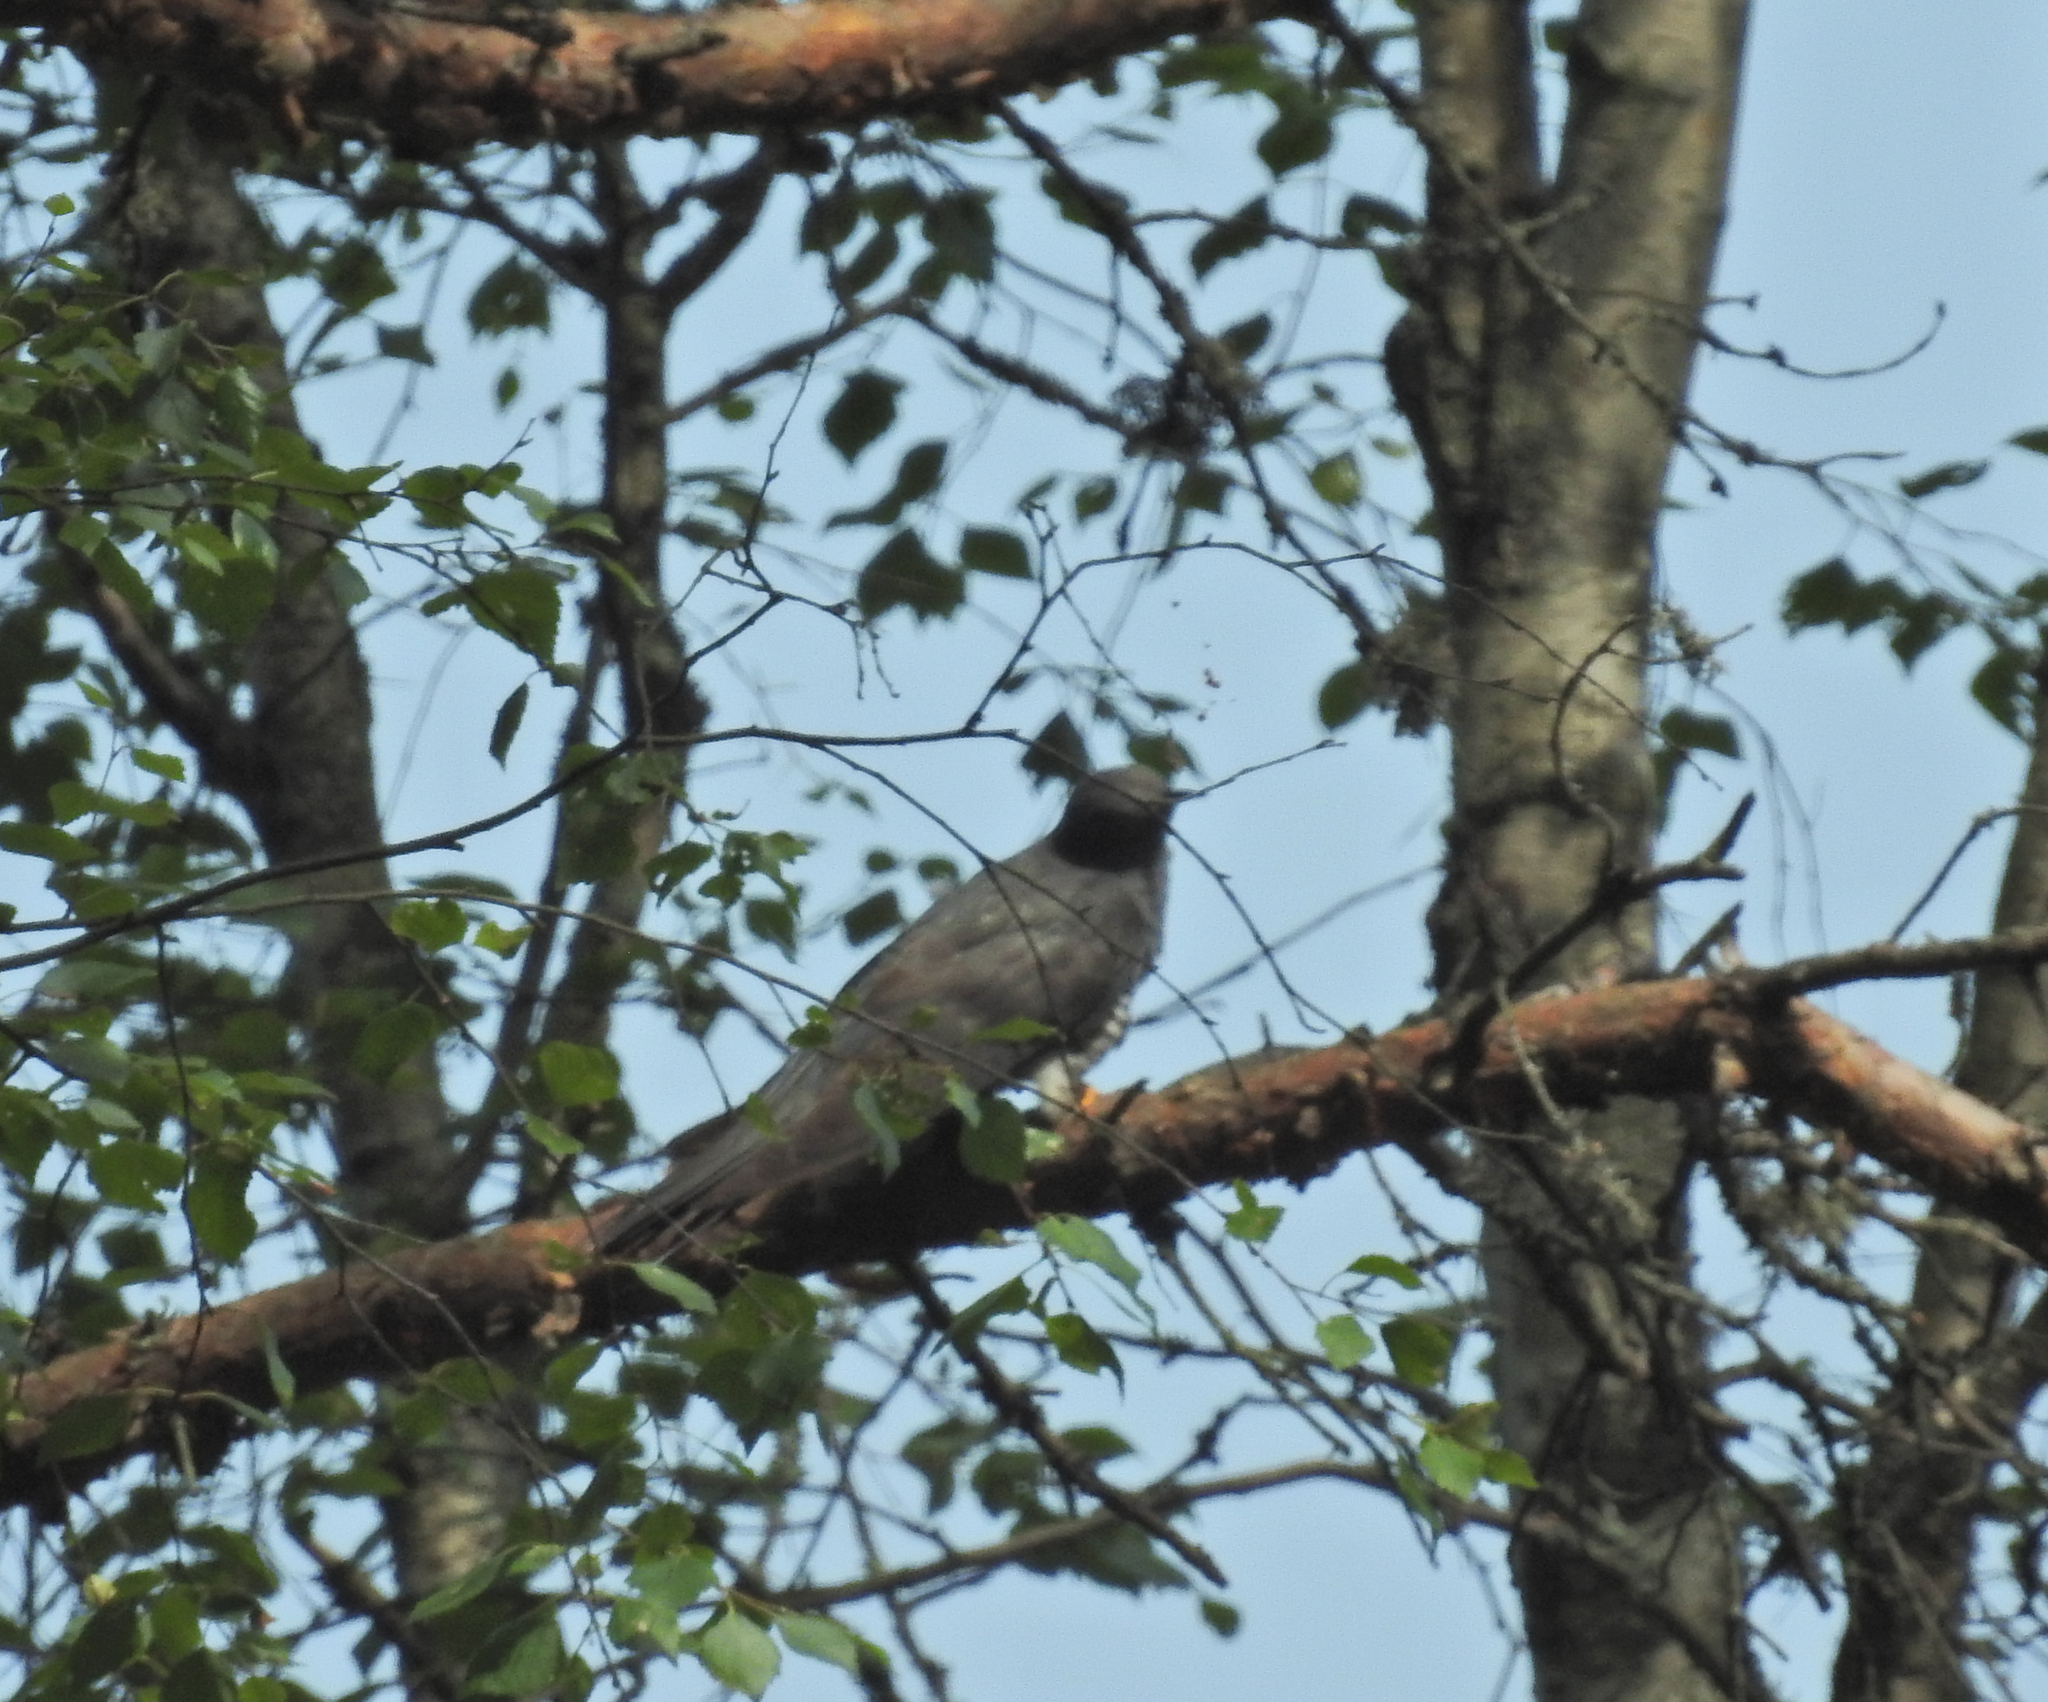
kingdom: Animalia
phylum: Chordata
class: Aves
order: Cuculiformes
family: Cuculidae
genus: Cuculus
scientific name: Cuculus canorus
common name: Common cuckoo
